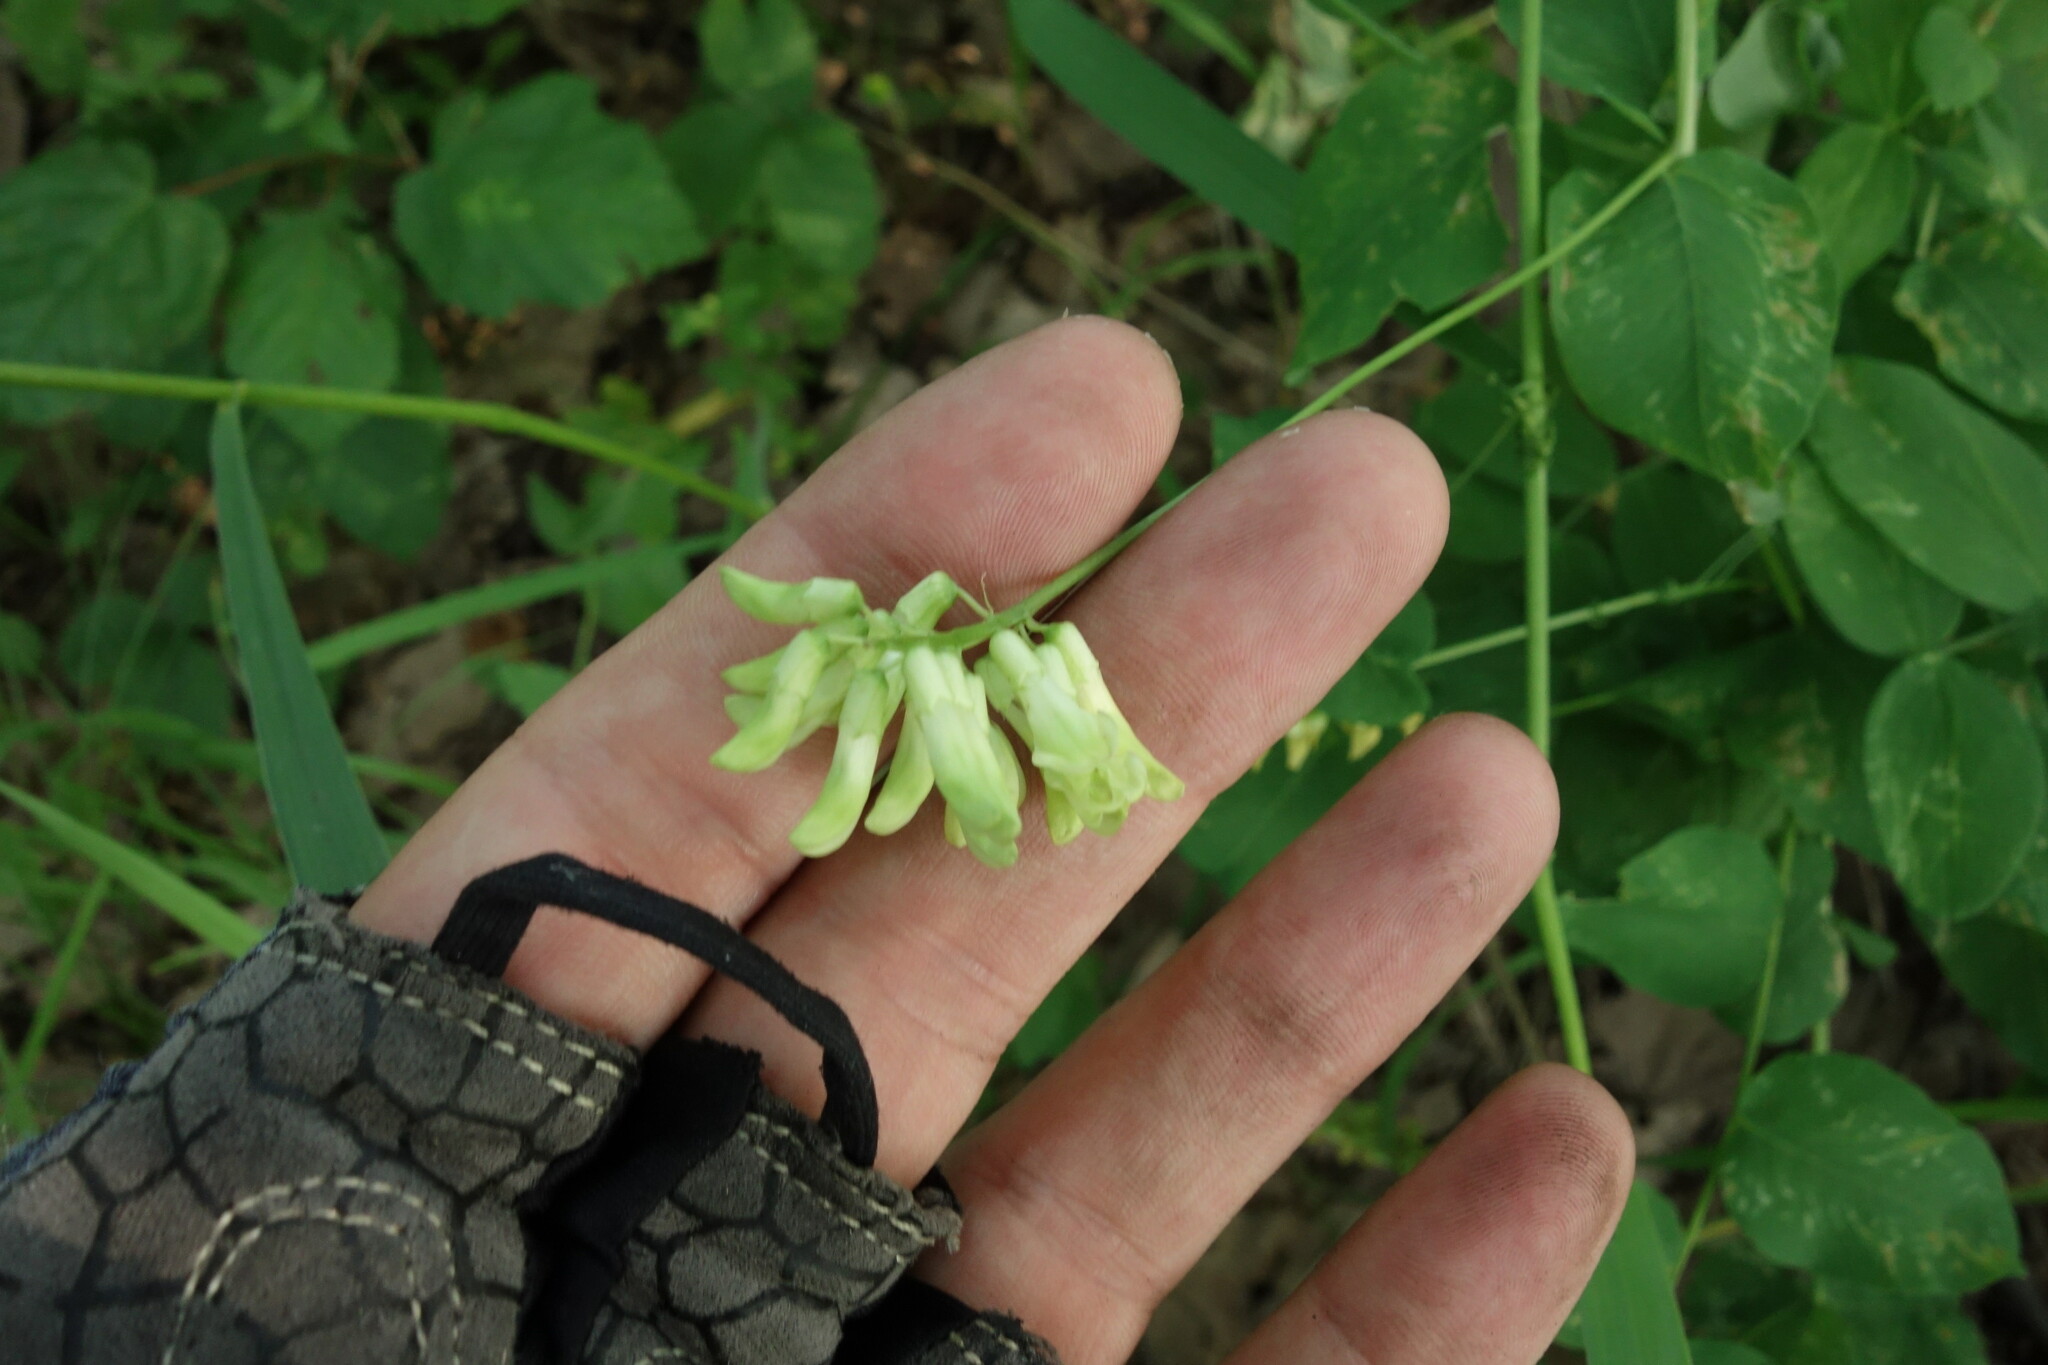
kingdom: Plantae
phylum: Tracheophyta
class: Magnoliopsida
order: Fabales
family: Fabaceae
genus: Vicia
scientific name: Vicia pisiformis
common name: Pale-flower vetch
